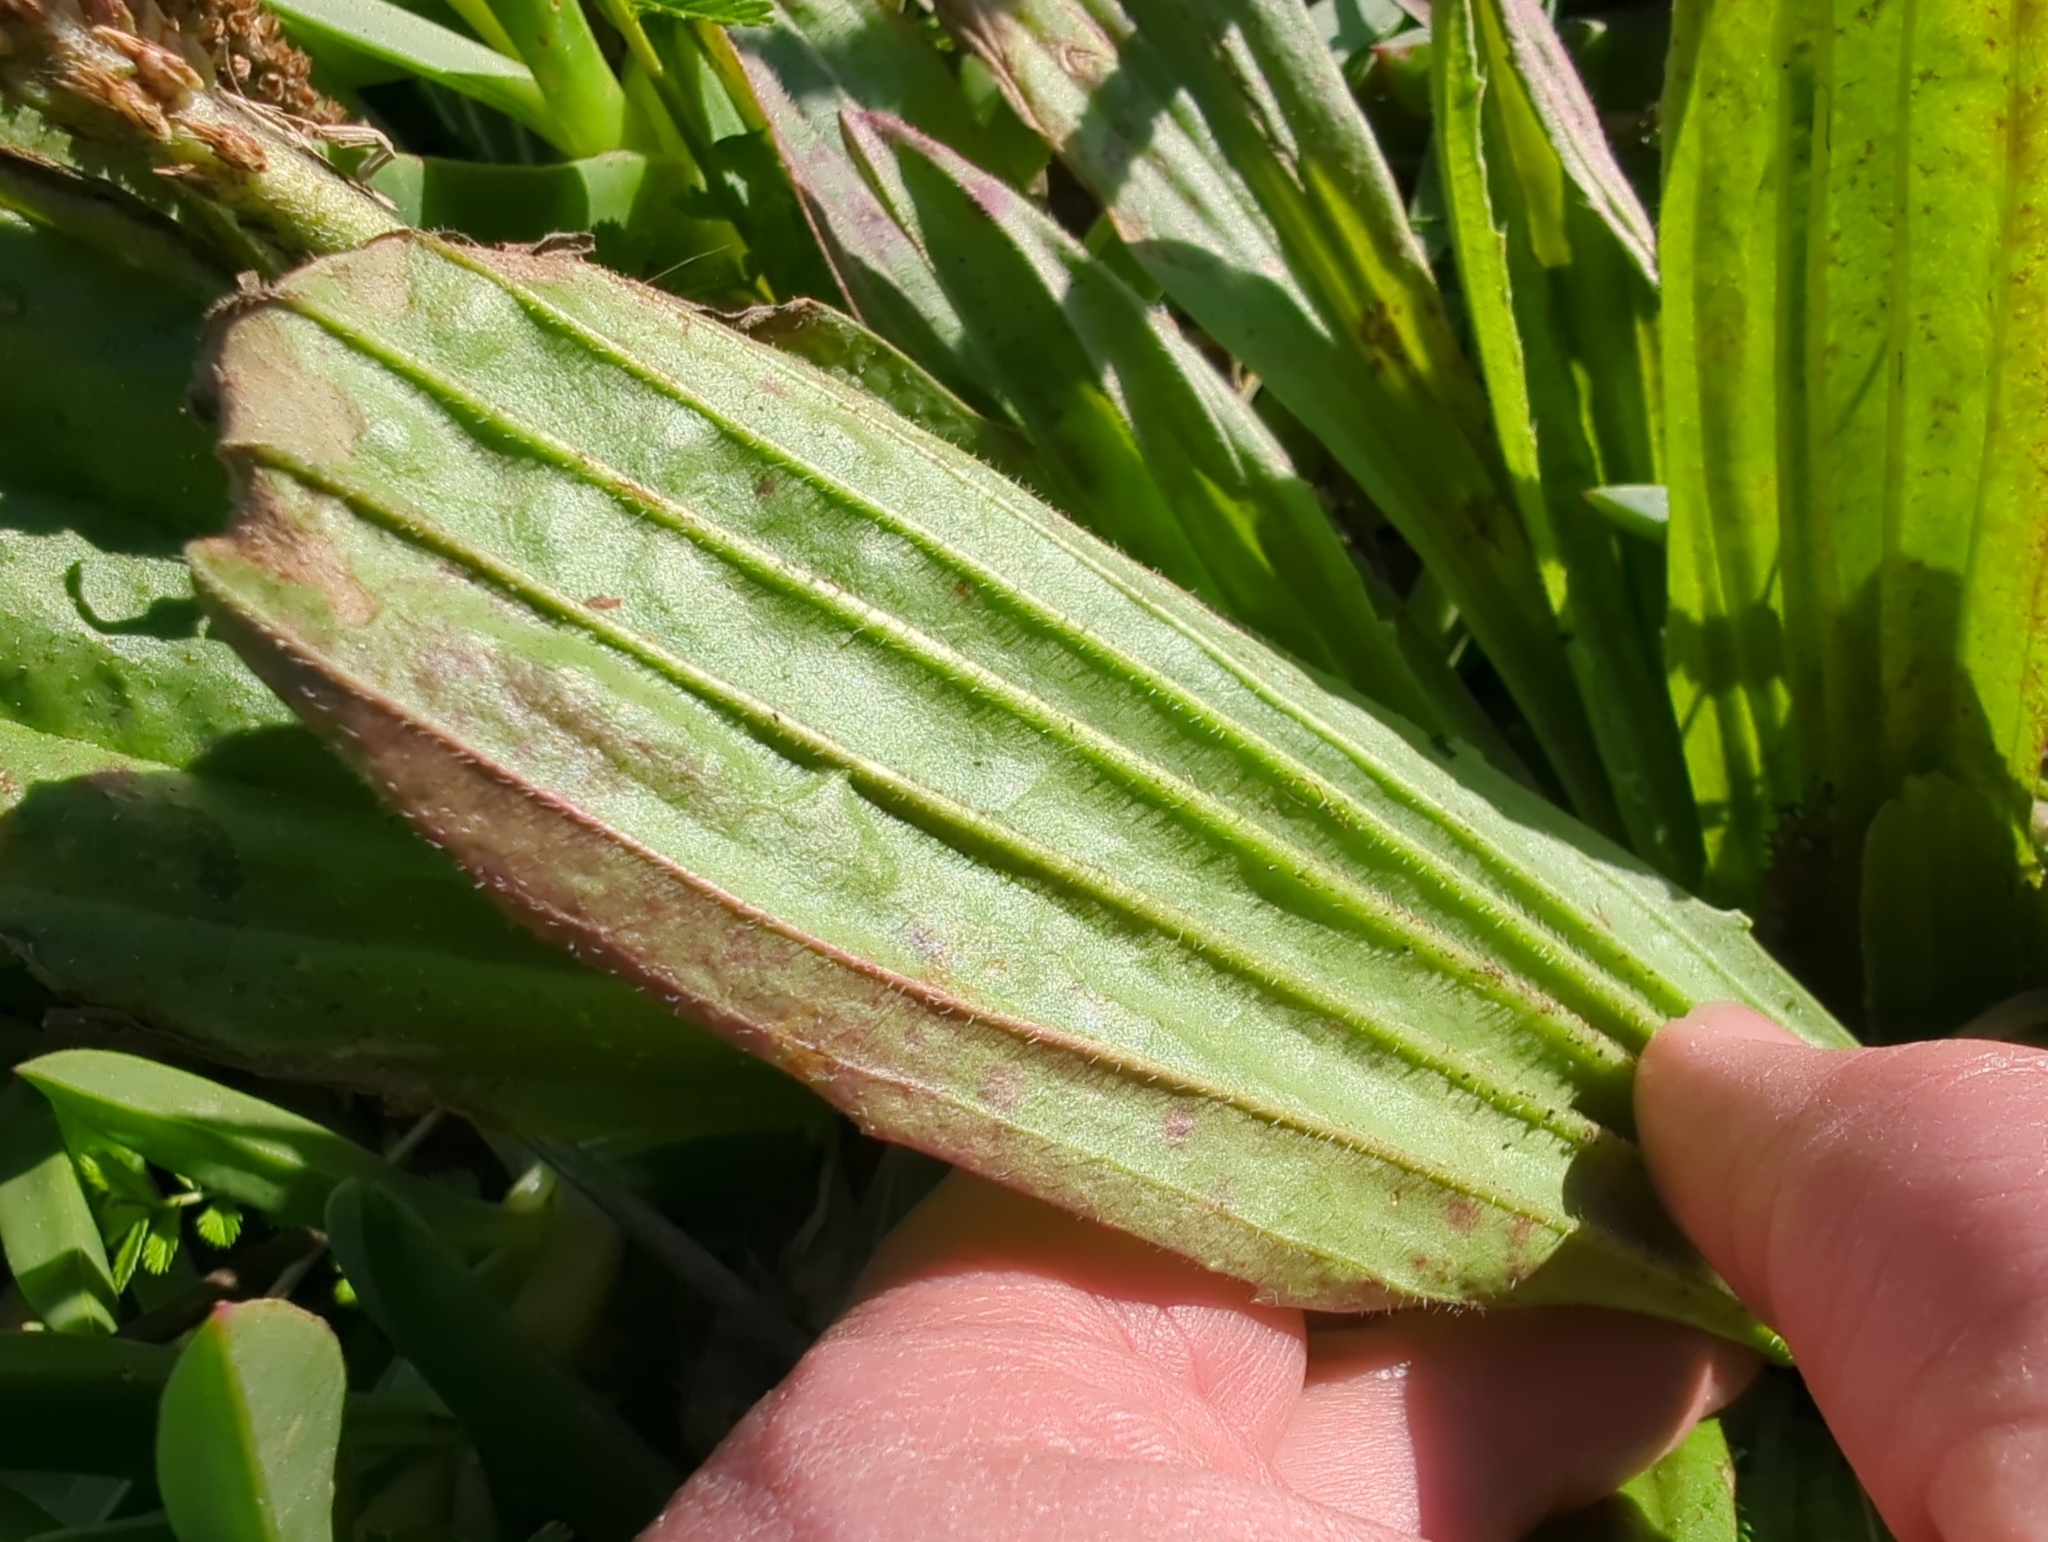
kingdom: Plantae
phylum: Tracheophyta
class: Magnoliopsida
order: Lamiales
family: Plantaginaceae
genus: Plantago
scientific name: Plantago subnuda
